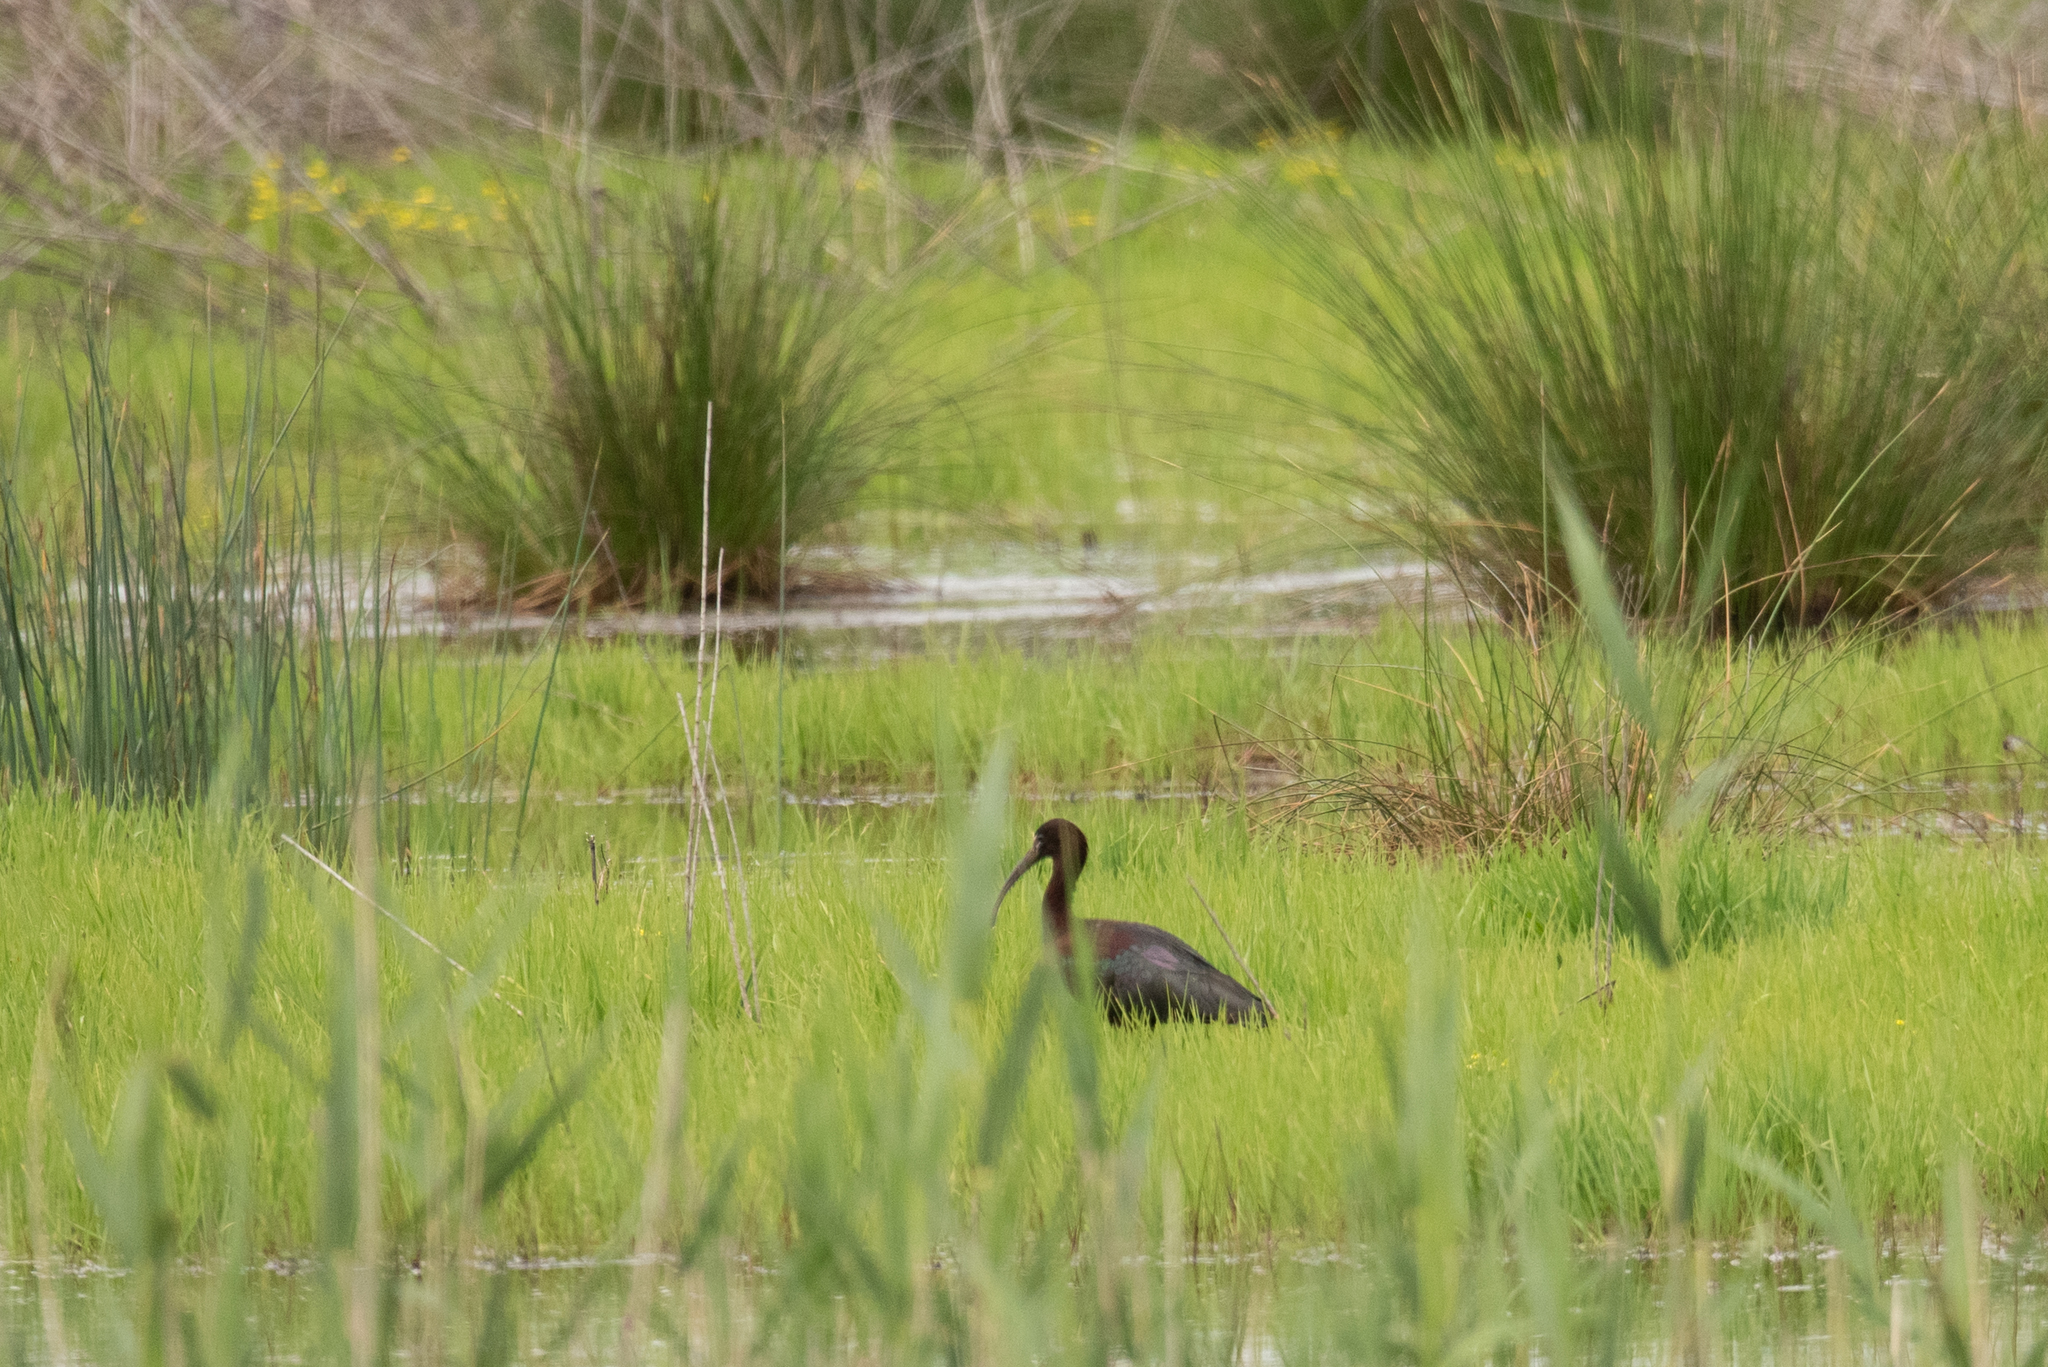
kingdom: Animalia
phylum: Chordata
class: Aves
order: Pelecaniformes
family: Threskiornithidae
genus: Plegadis
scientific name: Plegadis falcinellus
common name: Glossy ibis
